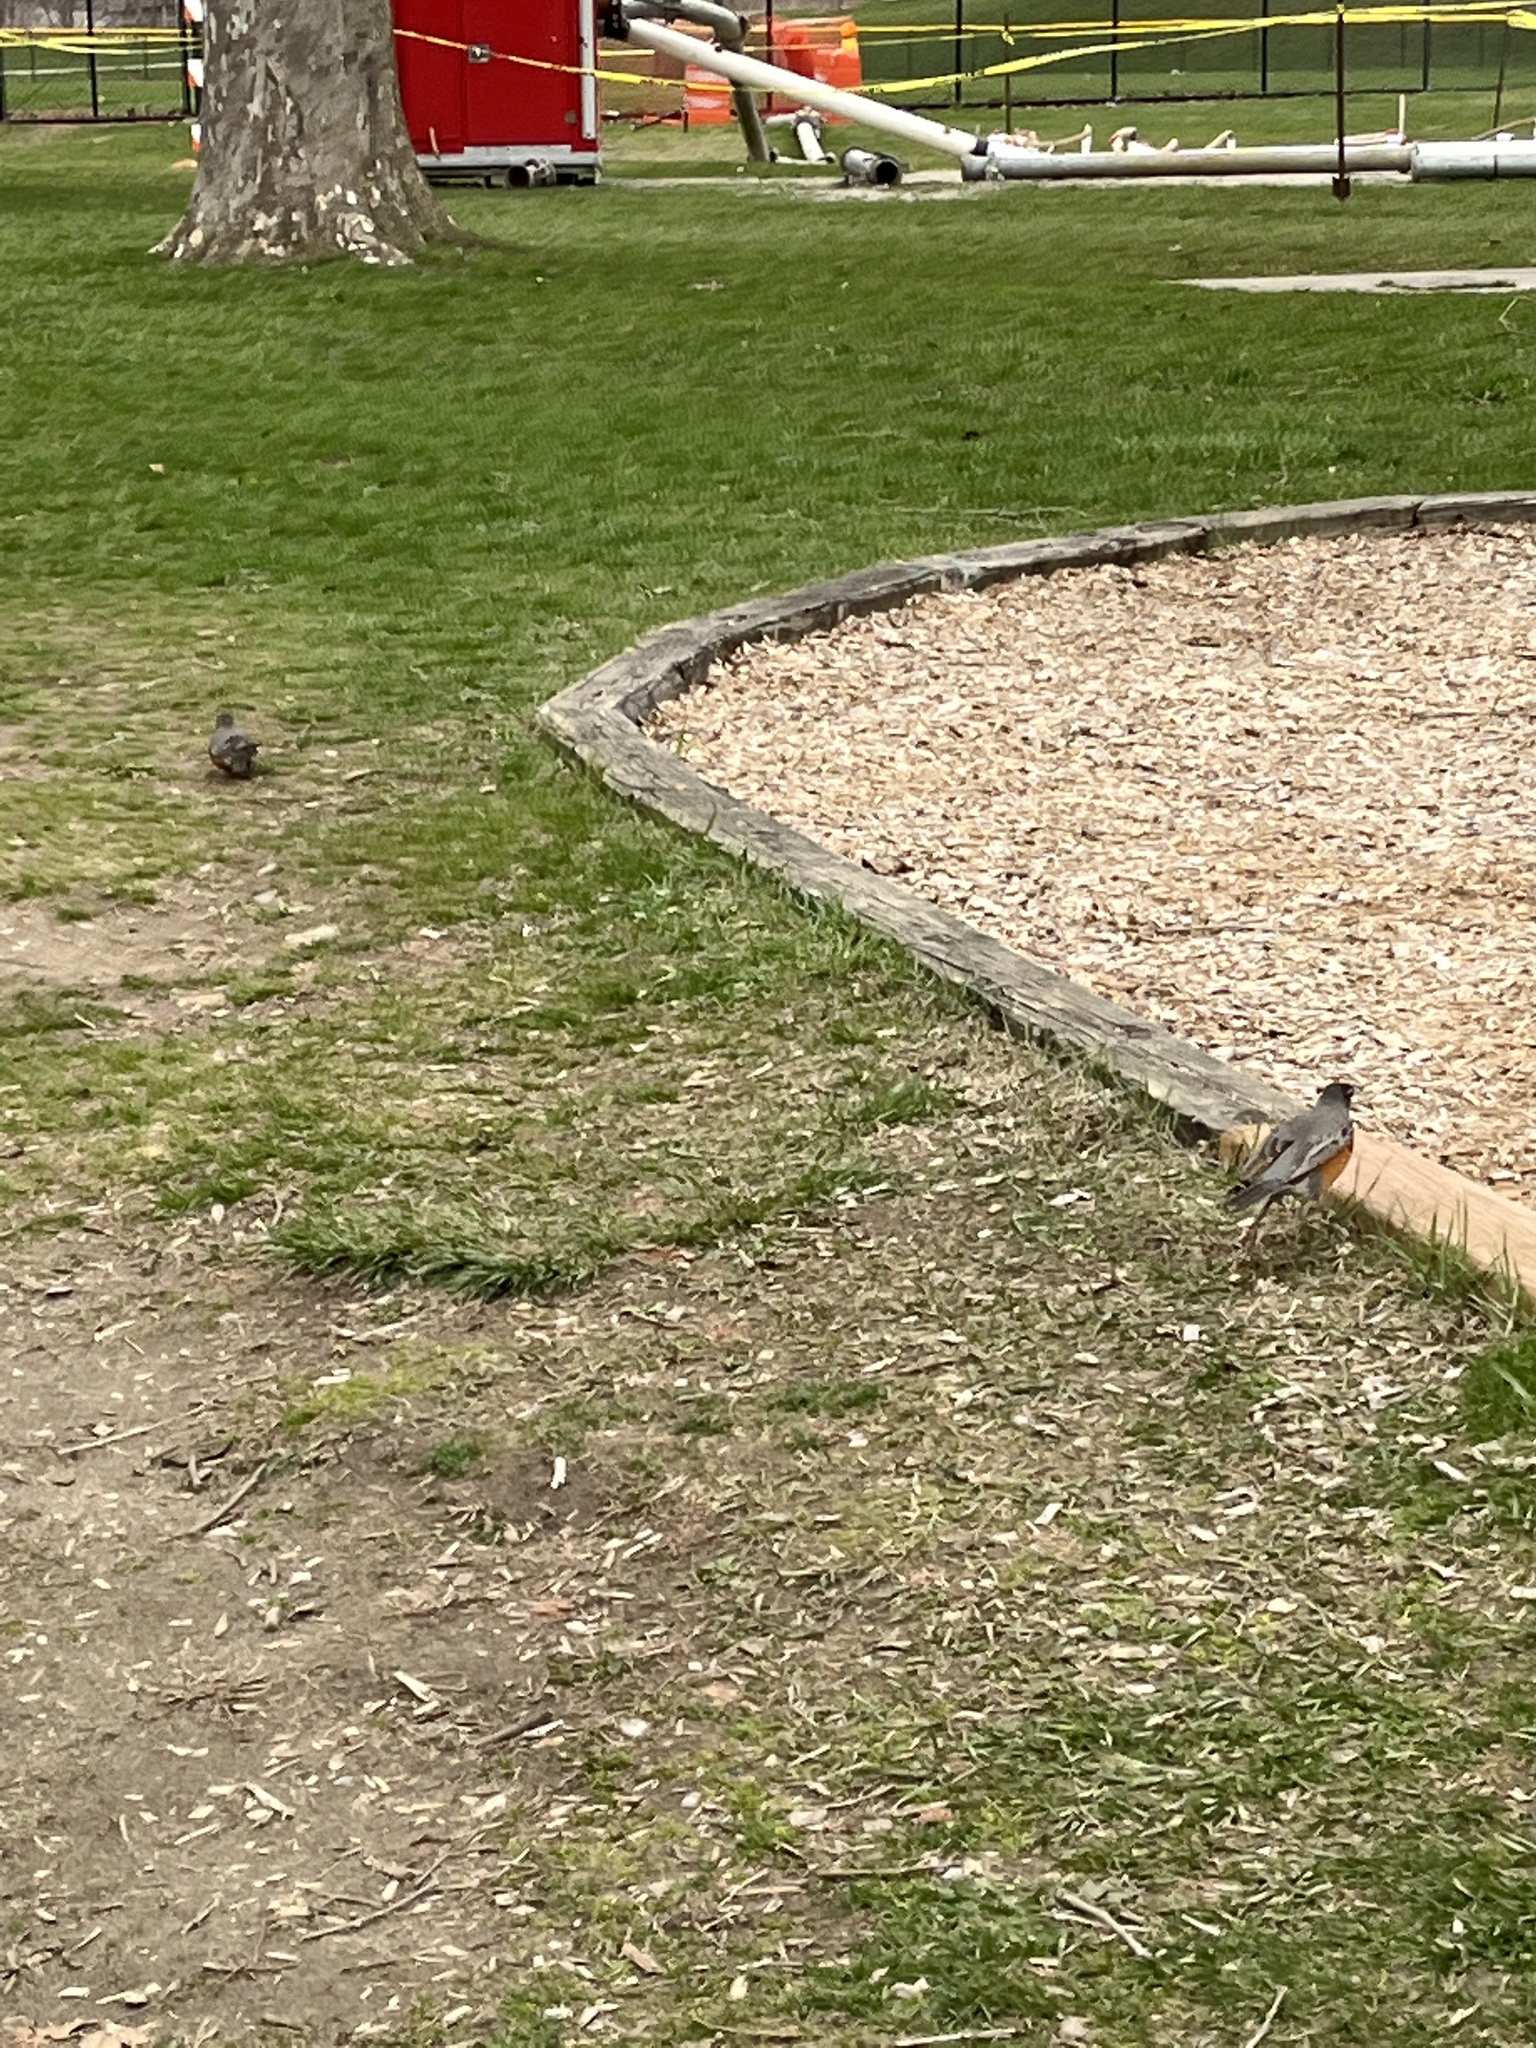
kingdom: Animalia
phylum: Chordata
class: Aves
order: Passeriformes
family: Turdidae
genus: Turdus
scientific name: Turdus migratorius
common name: American robin
